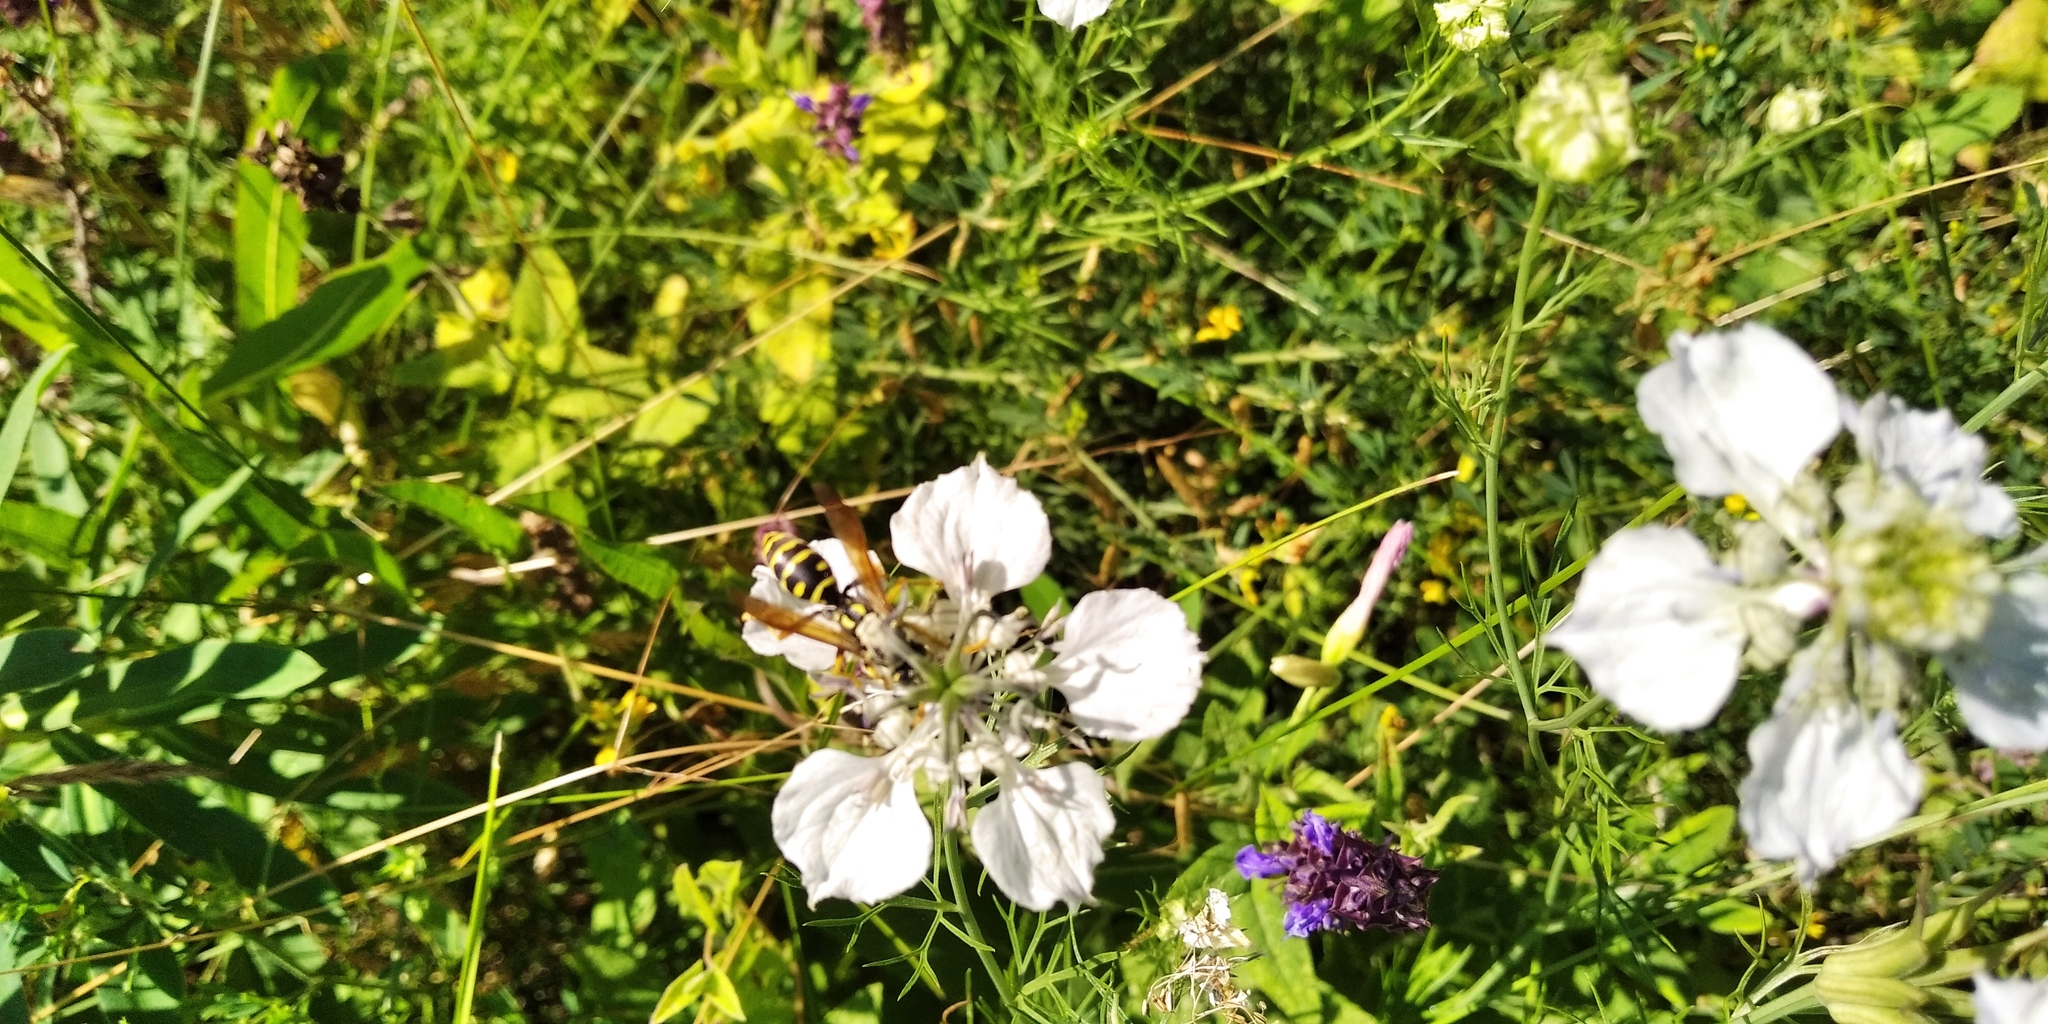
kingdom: Plantae
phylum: Tracheophyta
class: Magnoliopsida
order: Ranunculales
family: Ranunculaceae
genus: Nigella
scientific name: Nigella arvensis
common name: Wild fennel-flower
